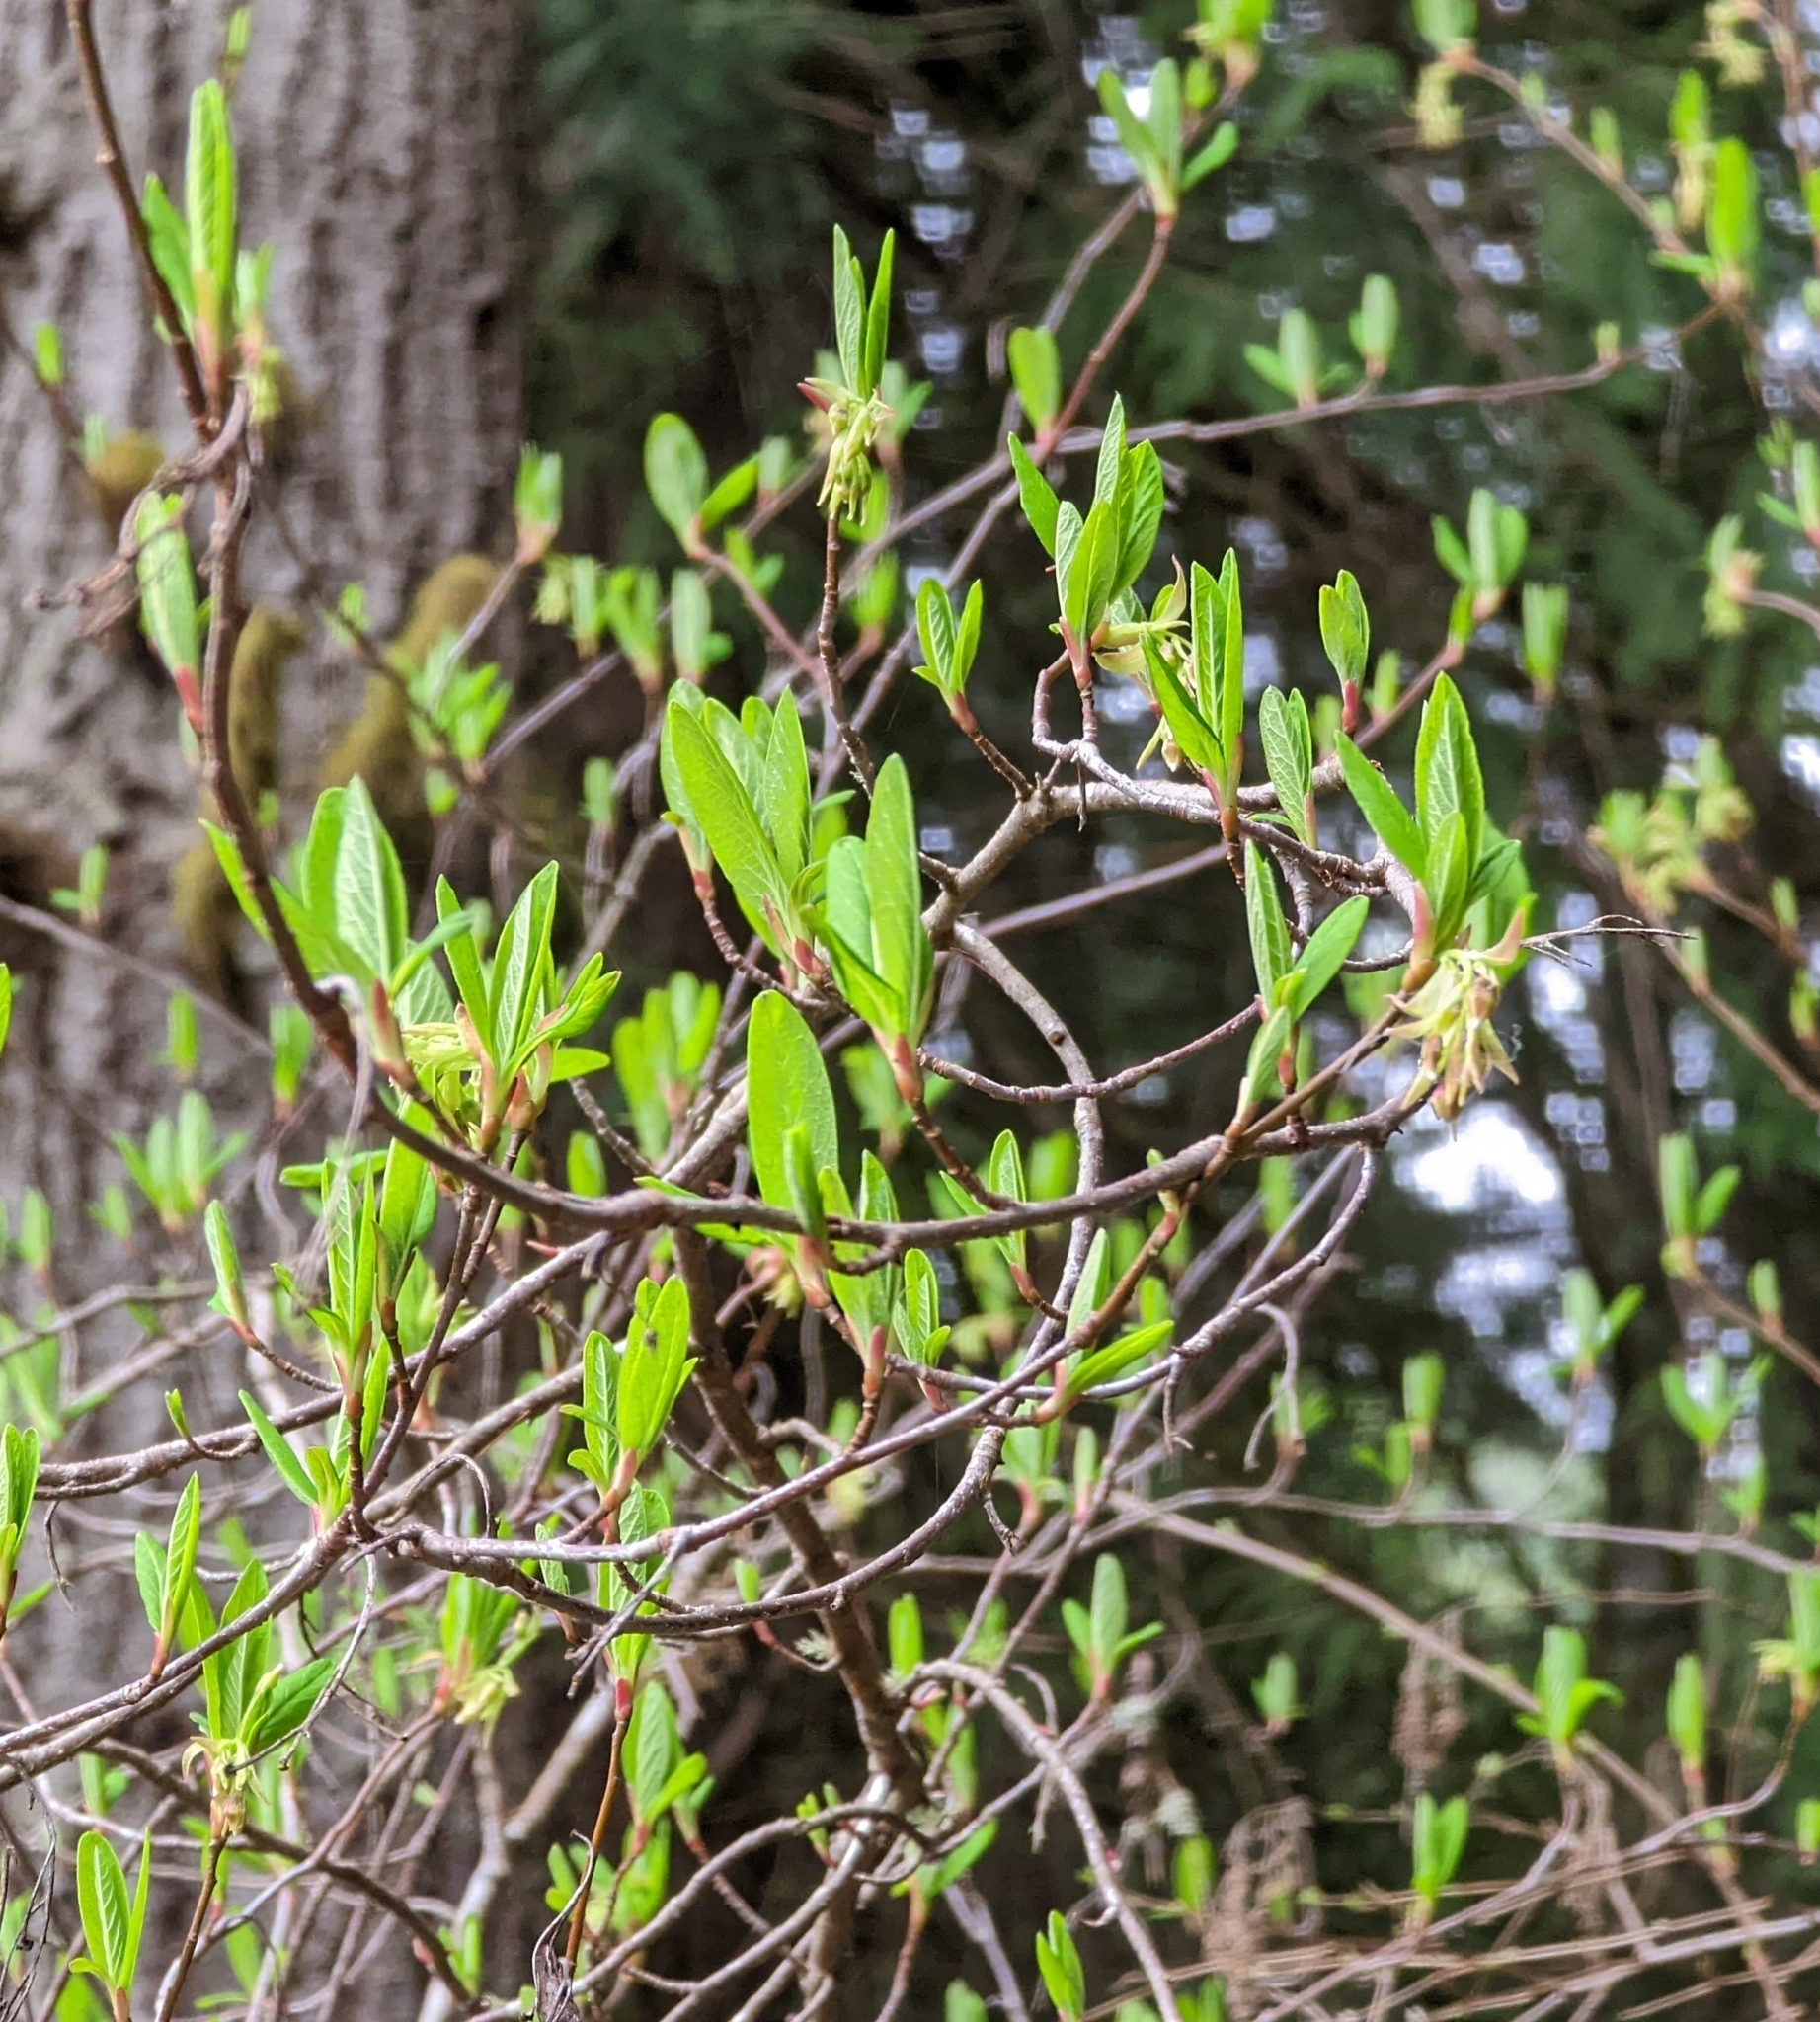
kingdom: Plantae
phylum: Tracheophyta
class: Magnoliopsida
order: Rosales
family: Rosaceae
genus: Oemleria
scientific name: Oemleria cerasiformis
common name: Osoberry
